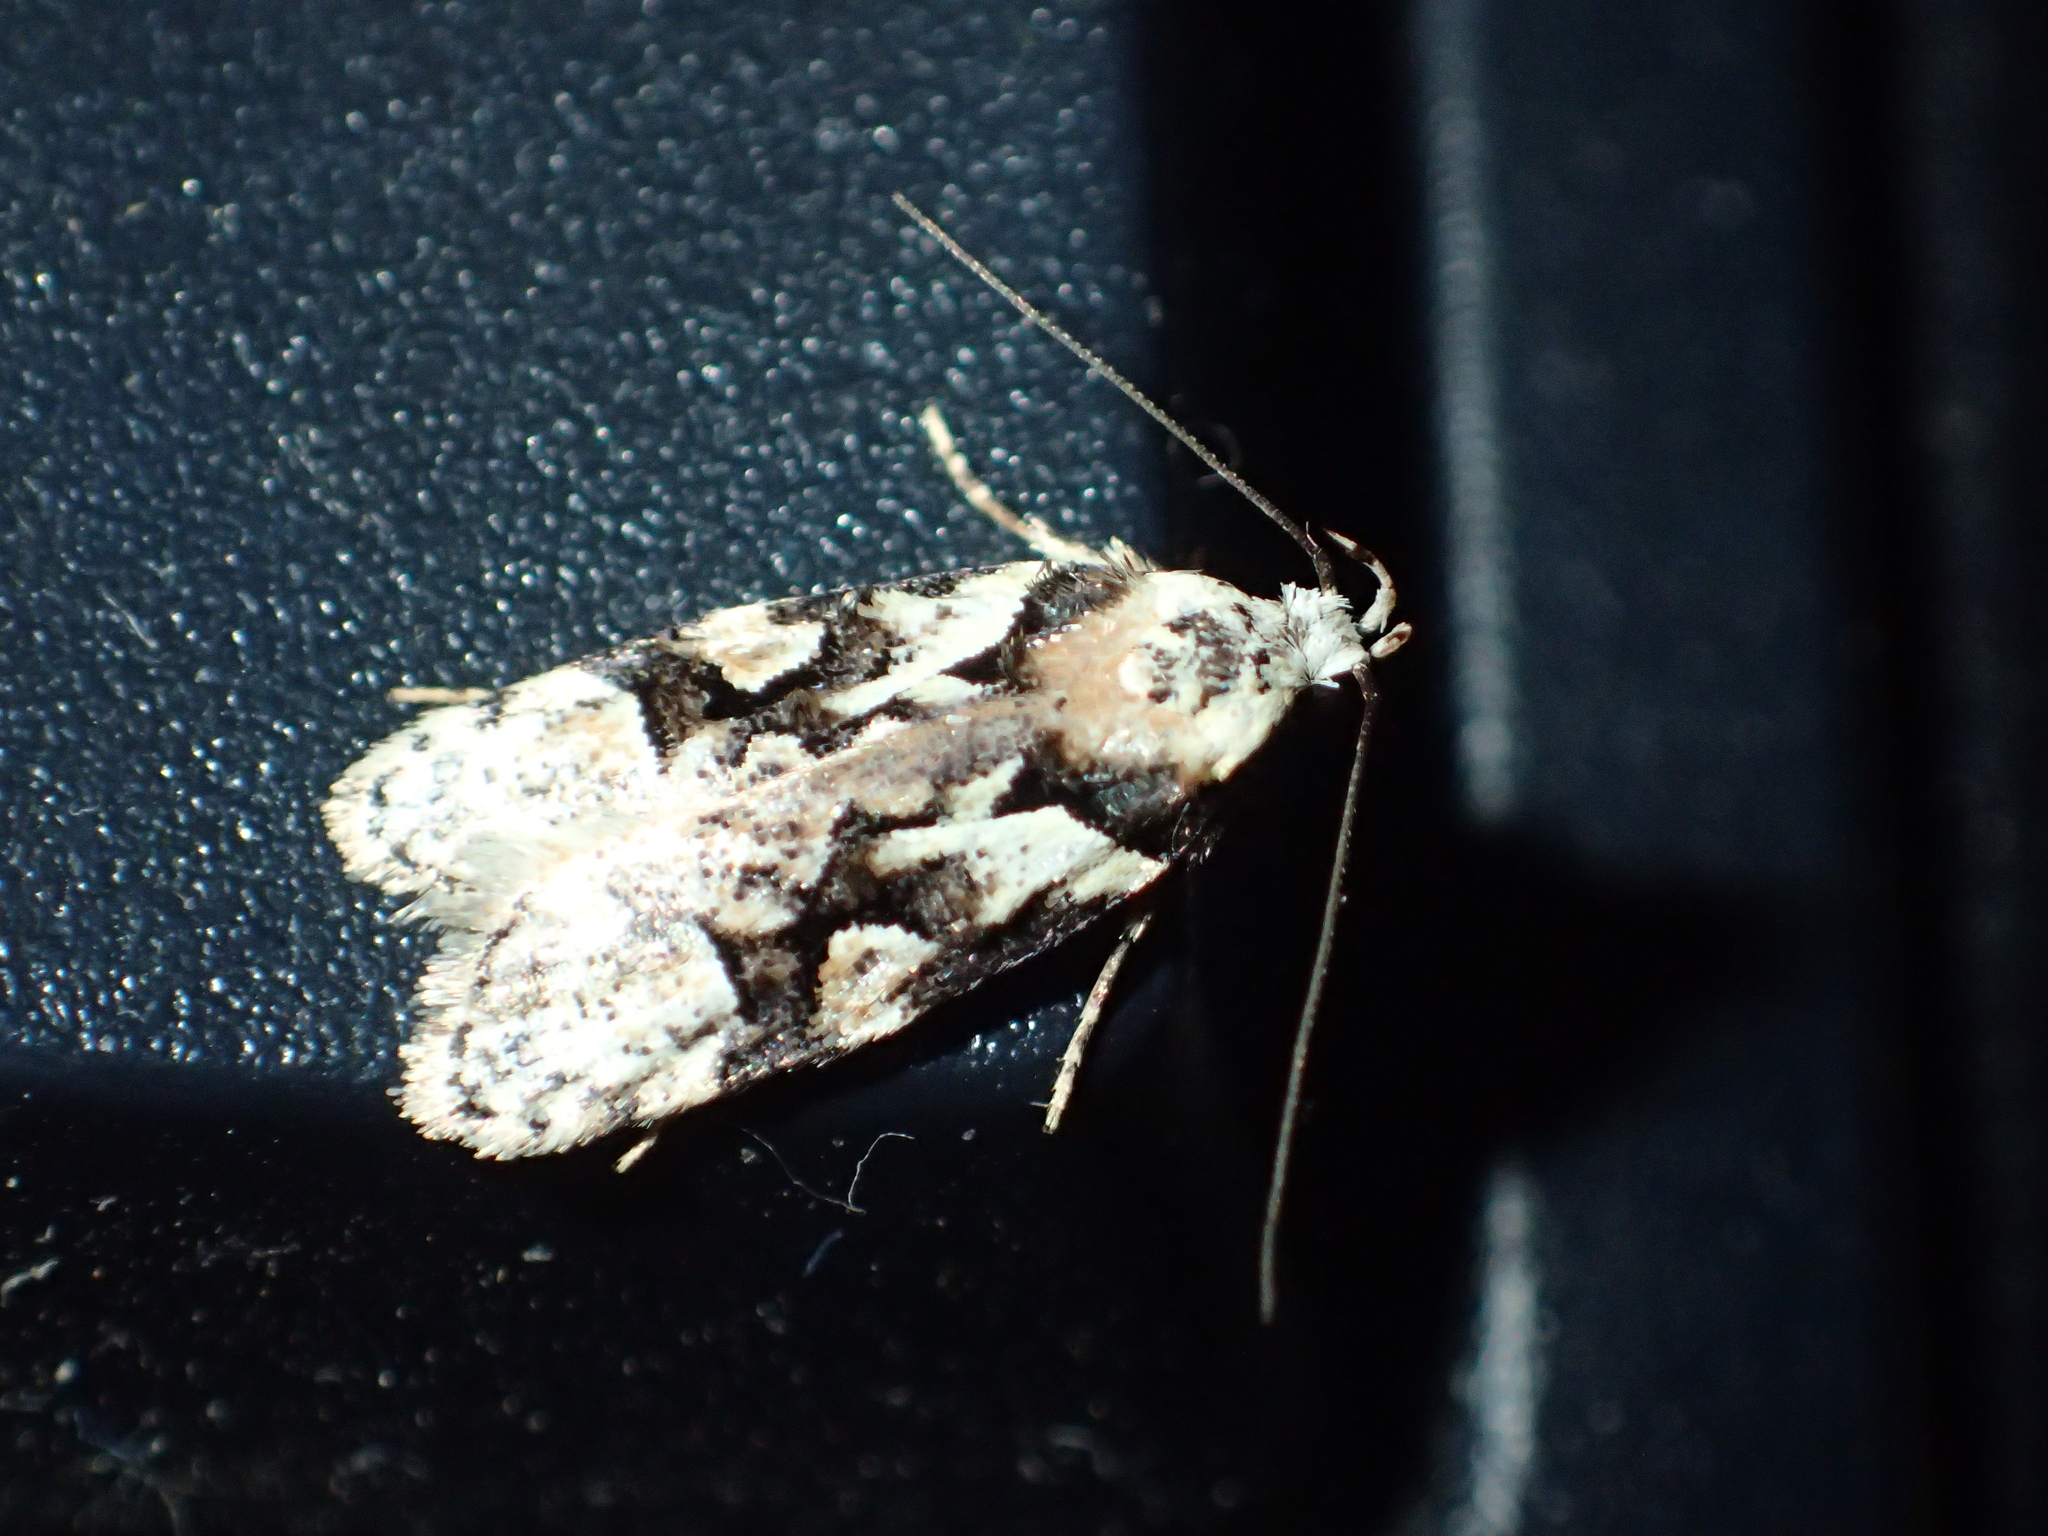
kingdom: Animalia
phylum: Arthropoda
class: Insecta
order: Lepidoptera
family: Oecophoridae
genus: Izatha
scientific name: Izatha epiphanes
